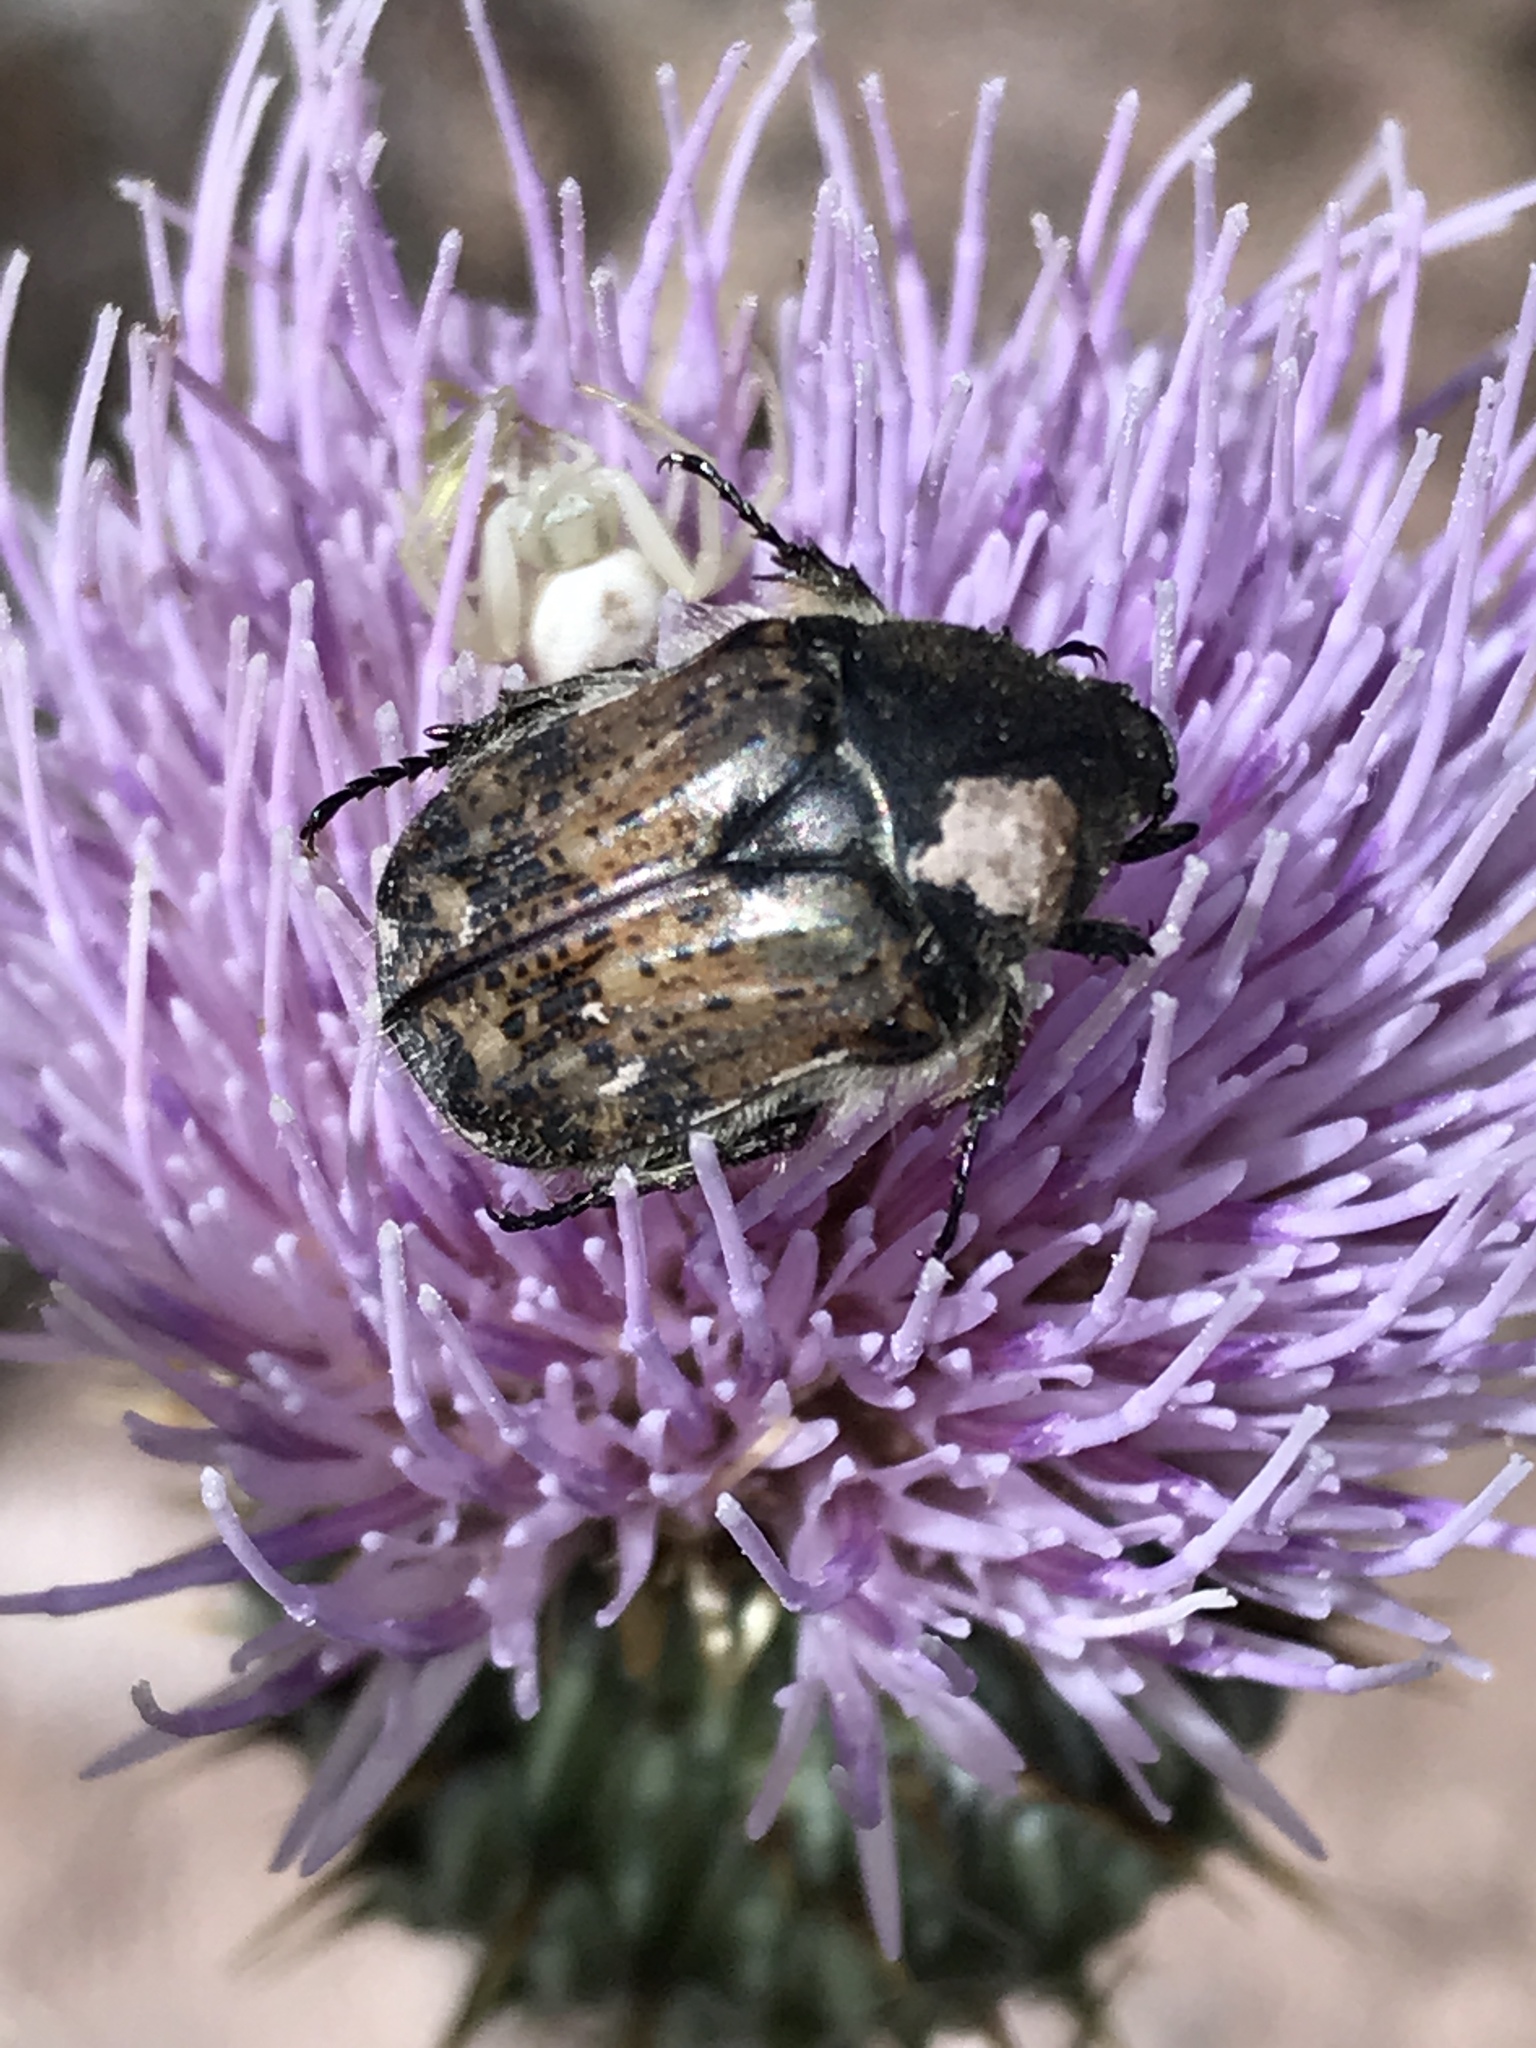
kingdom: Animalia
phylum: Arthropoda
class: Insecta
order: Coleoptera
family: Scarabaeidae
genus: Euphoria
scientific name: Euphoria inda
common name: Bumble flower beetle
